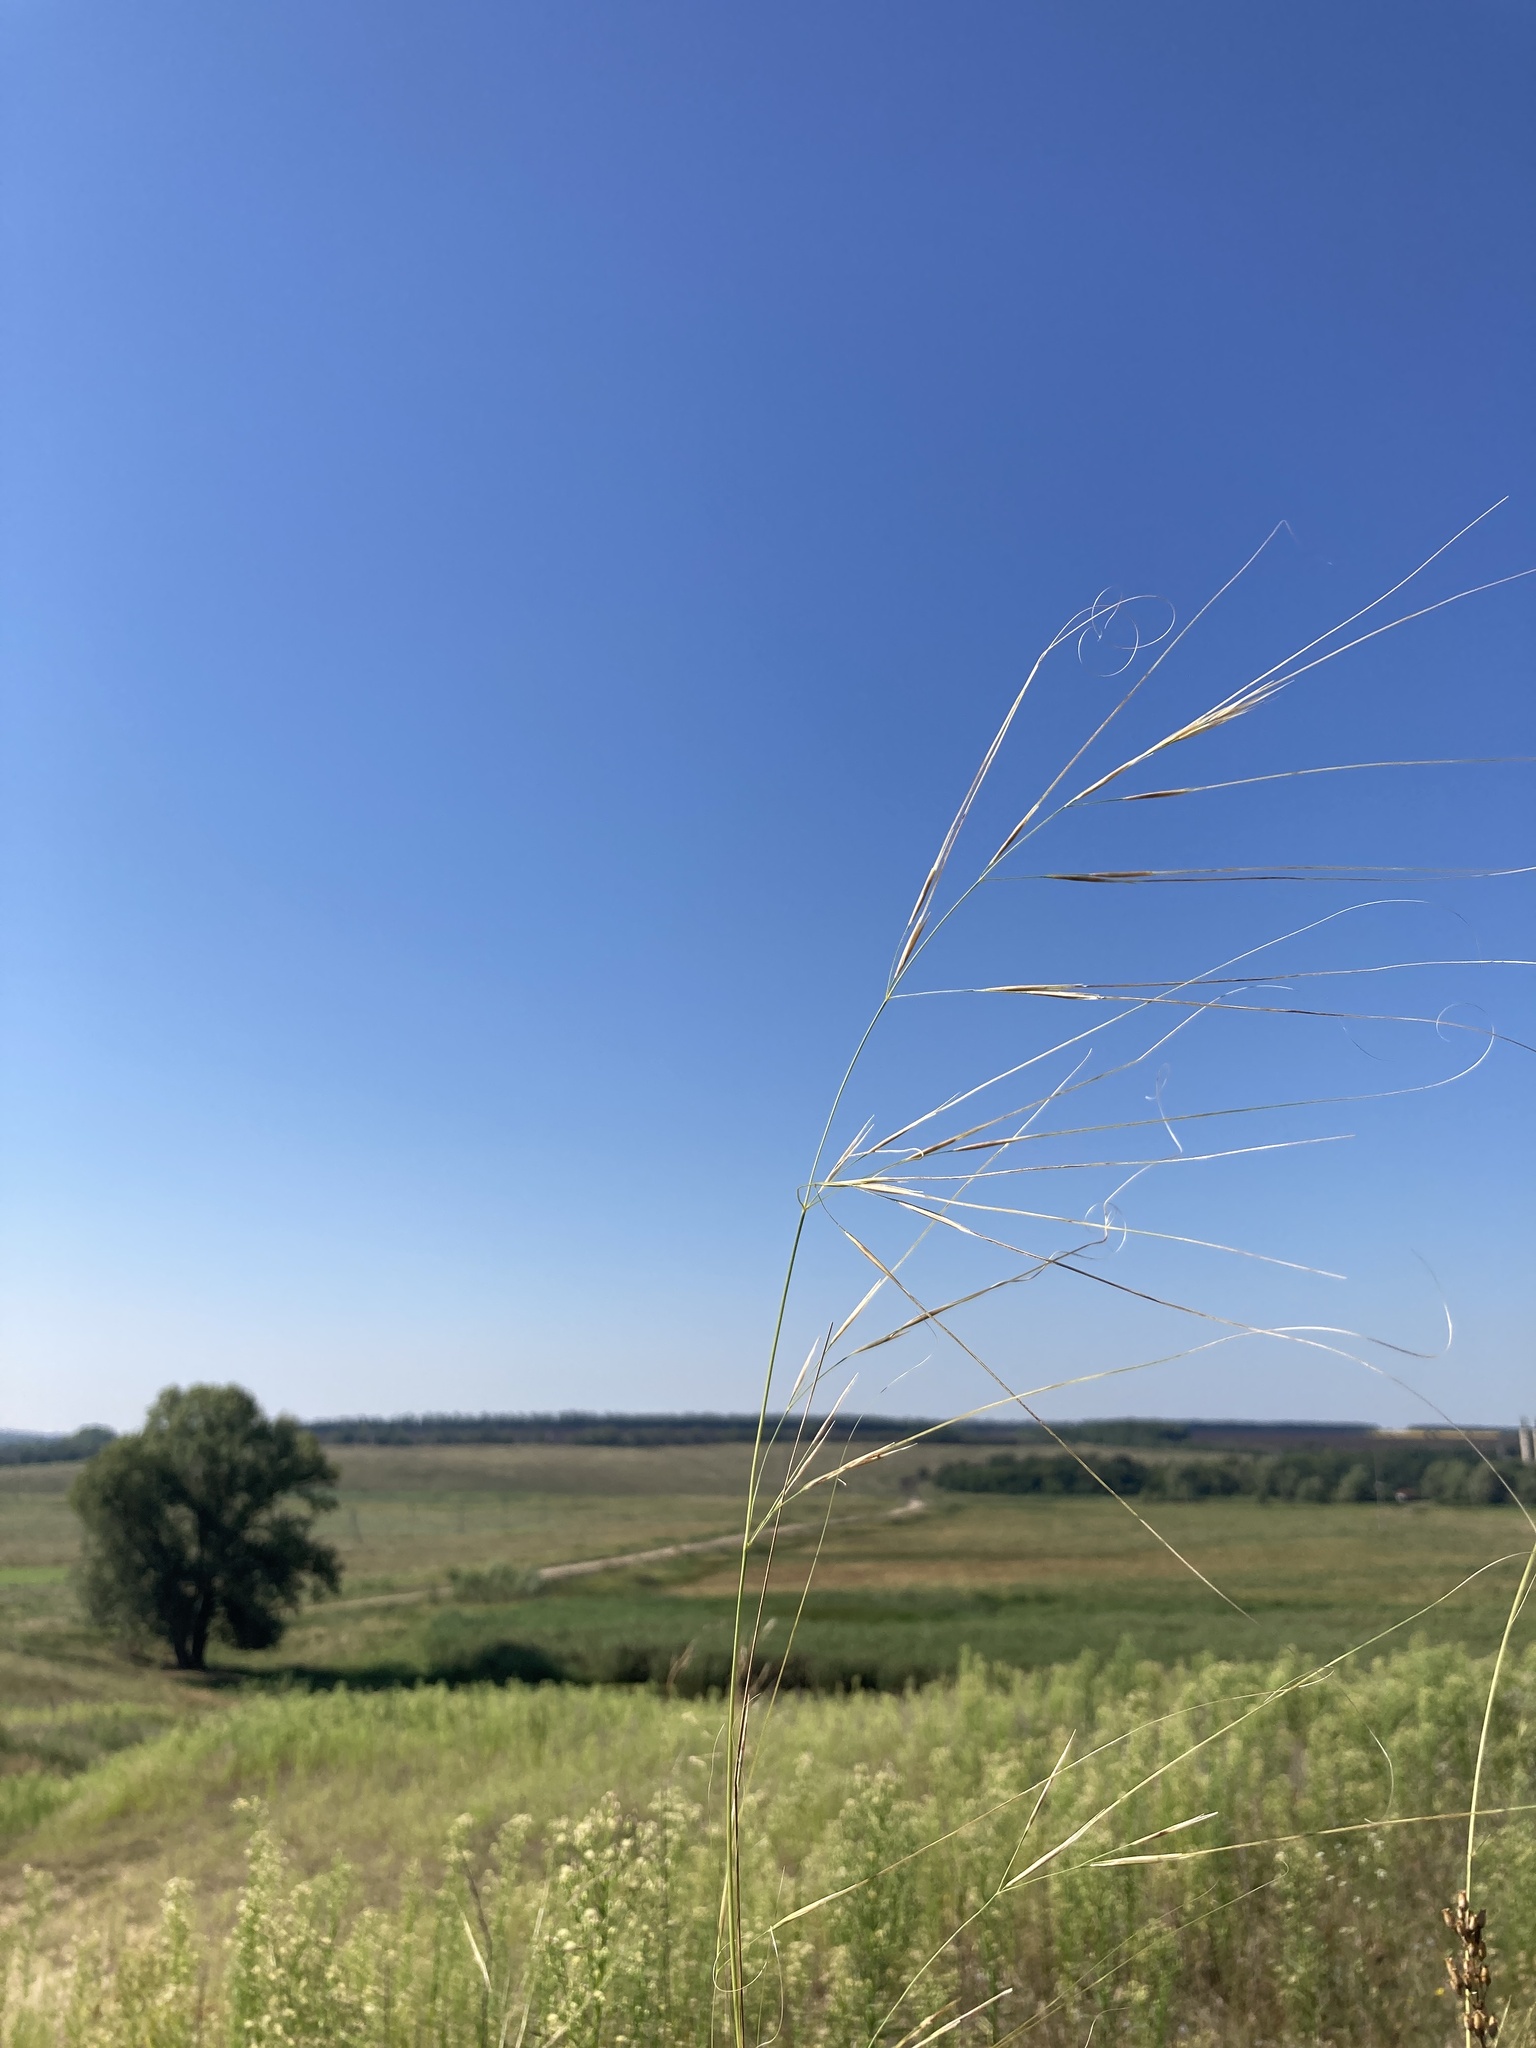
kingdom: Plantae
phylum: Tracheophyta
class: Liliopsida
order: Poales
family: Poaceae
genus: Stipa
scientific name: Stipa capillata
